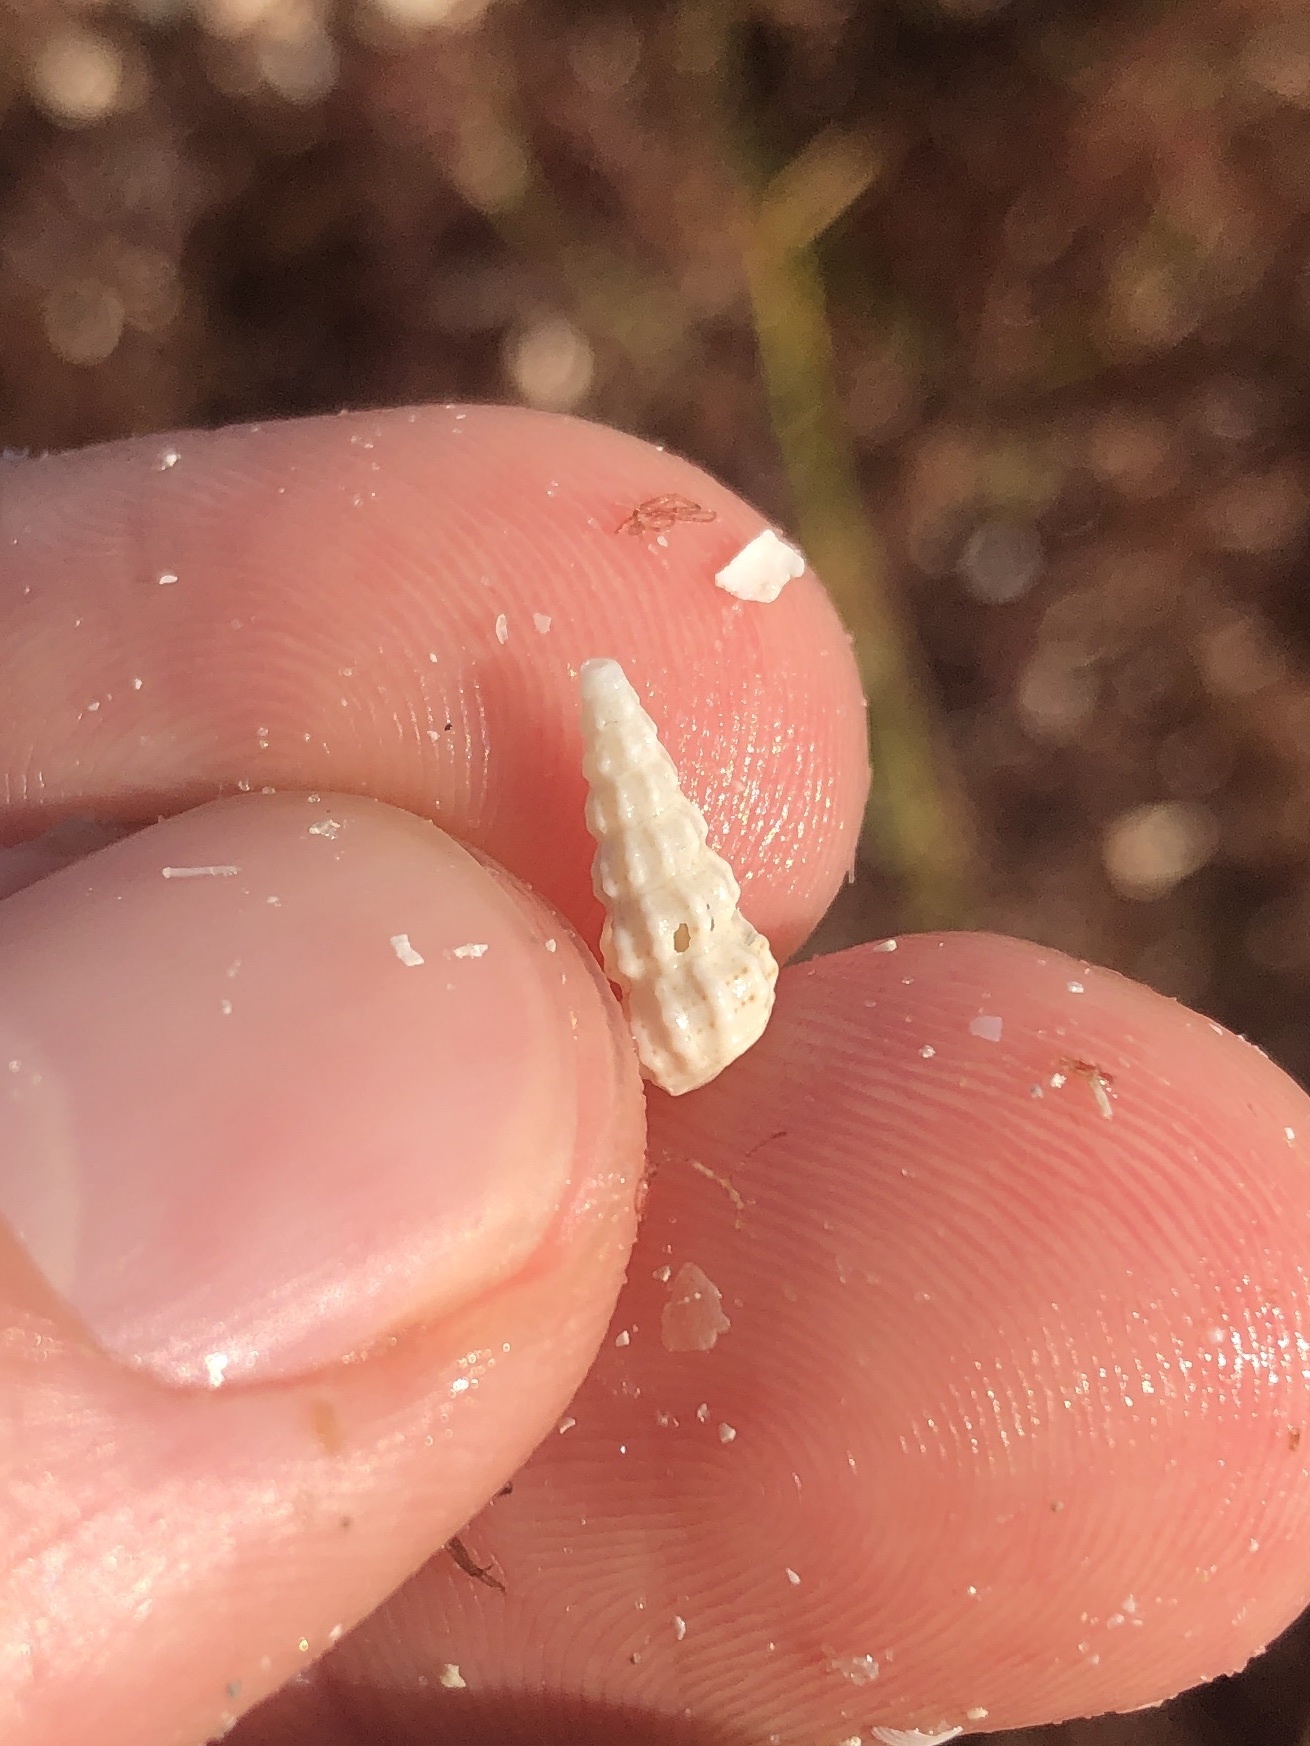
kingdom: Animalia
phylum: Mollusca
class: Gastropoda
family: Cerithiidae
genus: Cerithium
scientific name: Cerithium muscarum
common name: Fly-specked cerith
